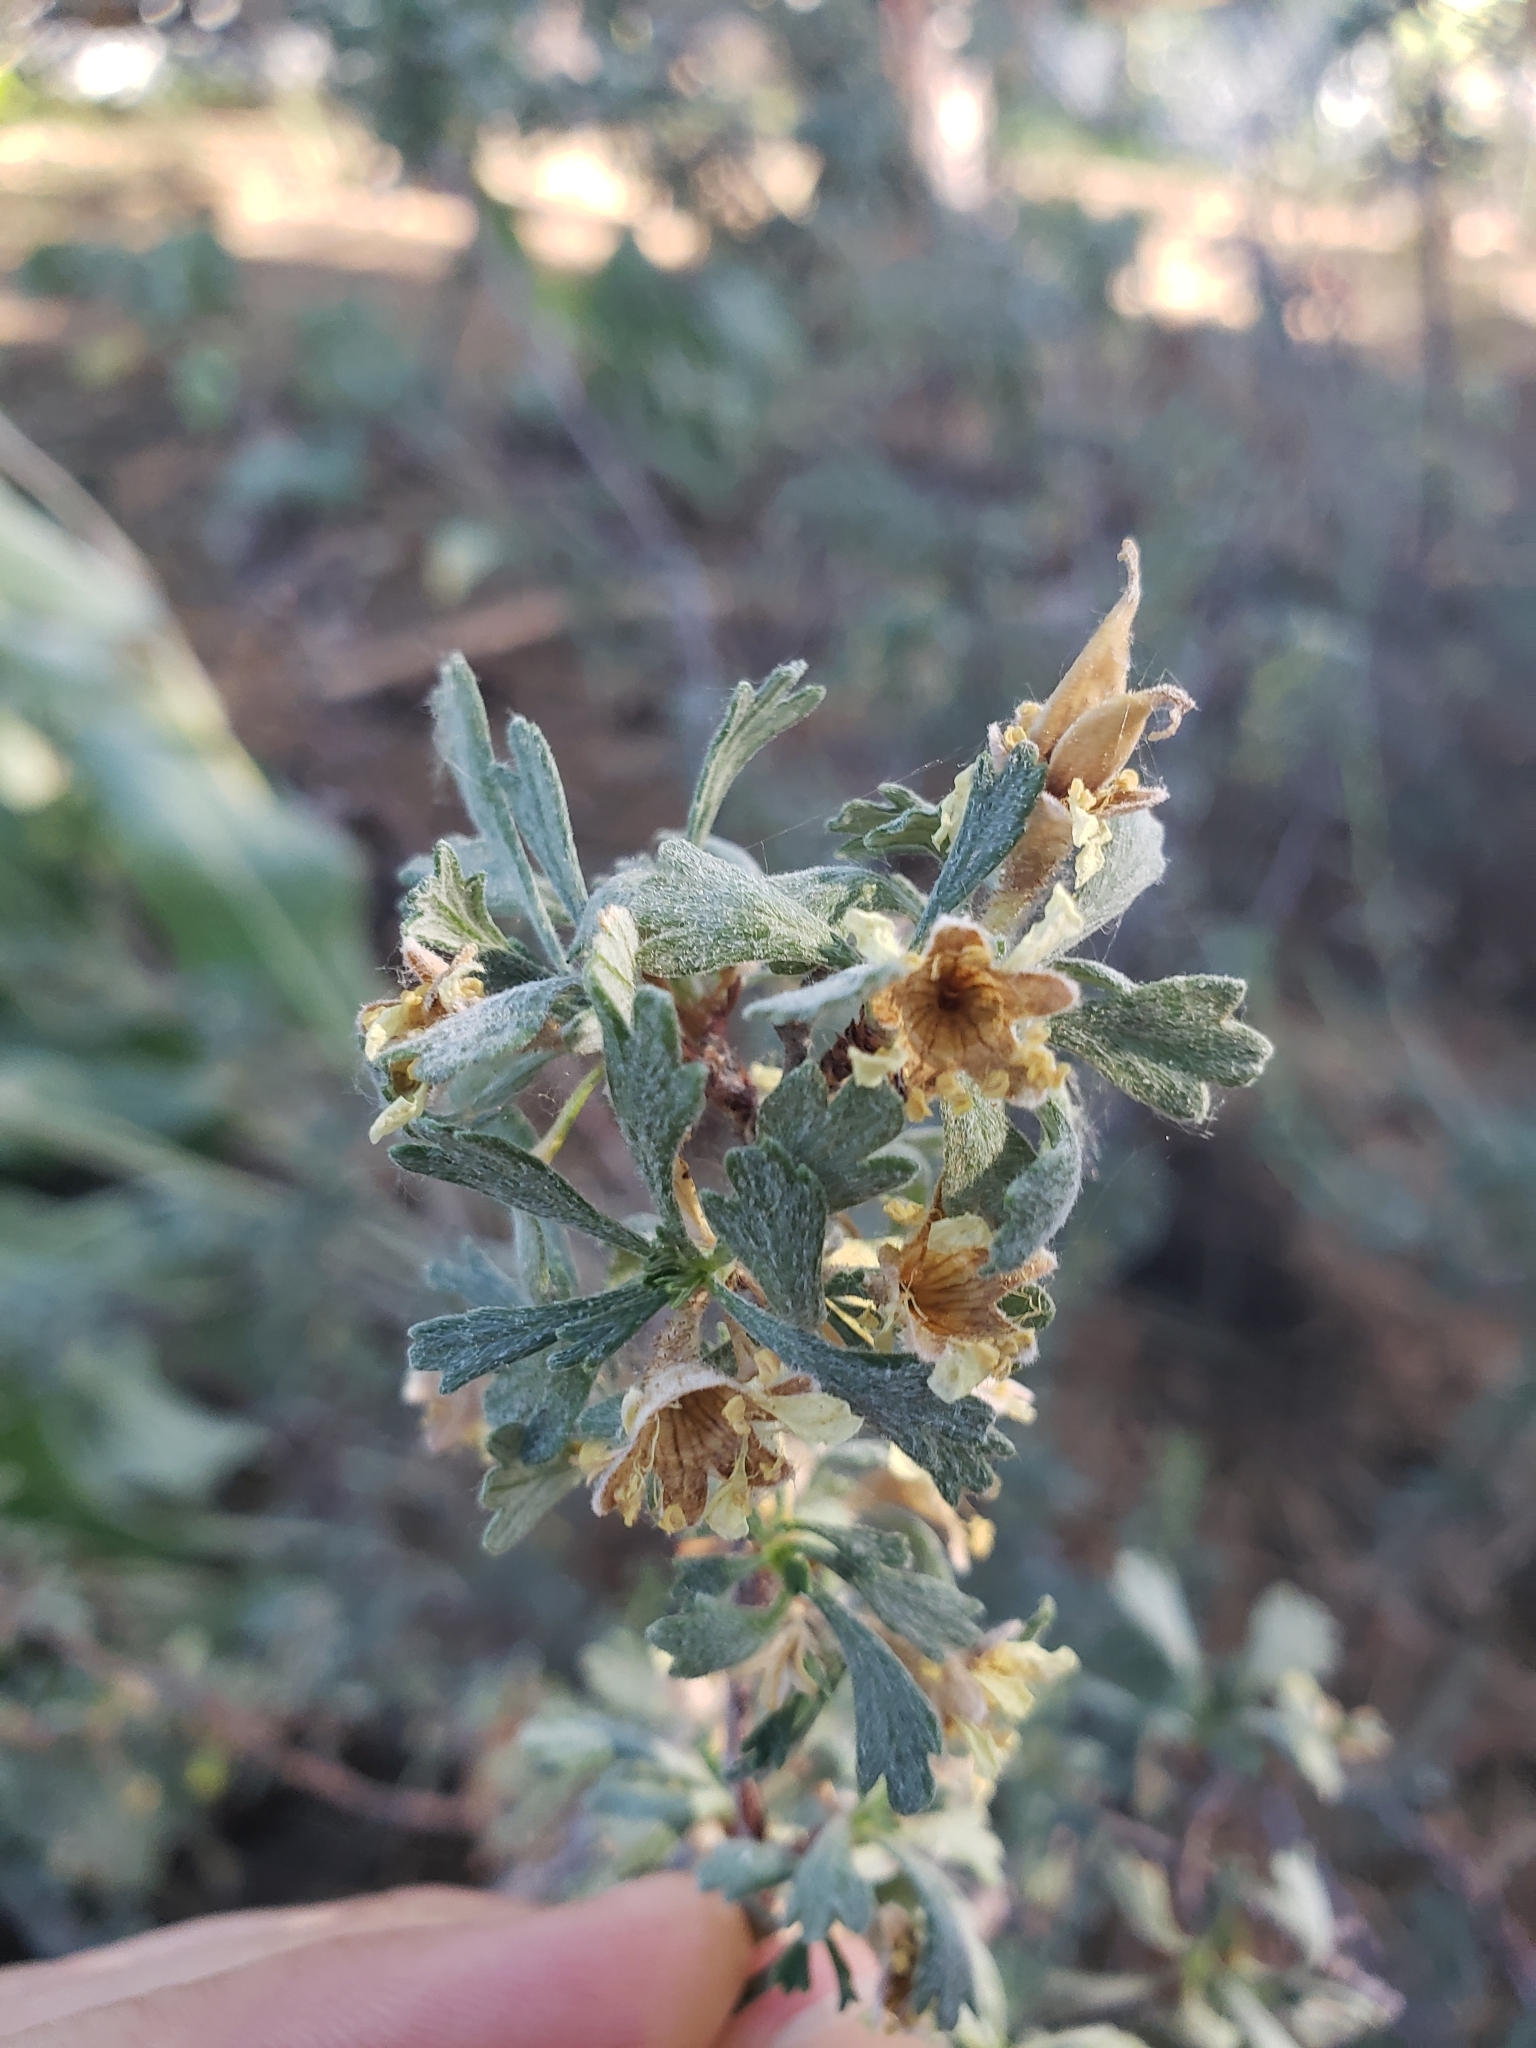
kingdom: Plantae
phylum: Tracheophyta
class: Magnoliopsida
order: Rosales
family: Rosaceae
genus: Purshia
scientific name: Purshia tridentata
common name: Antelope bitterbrush
